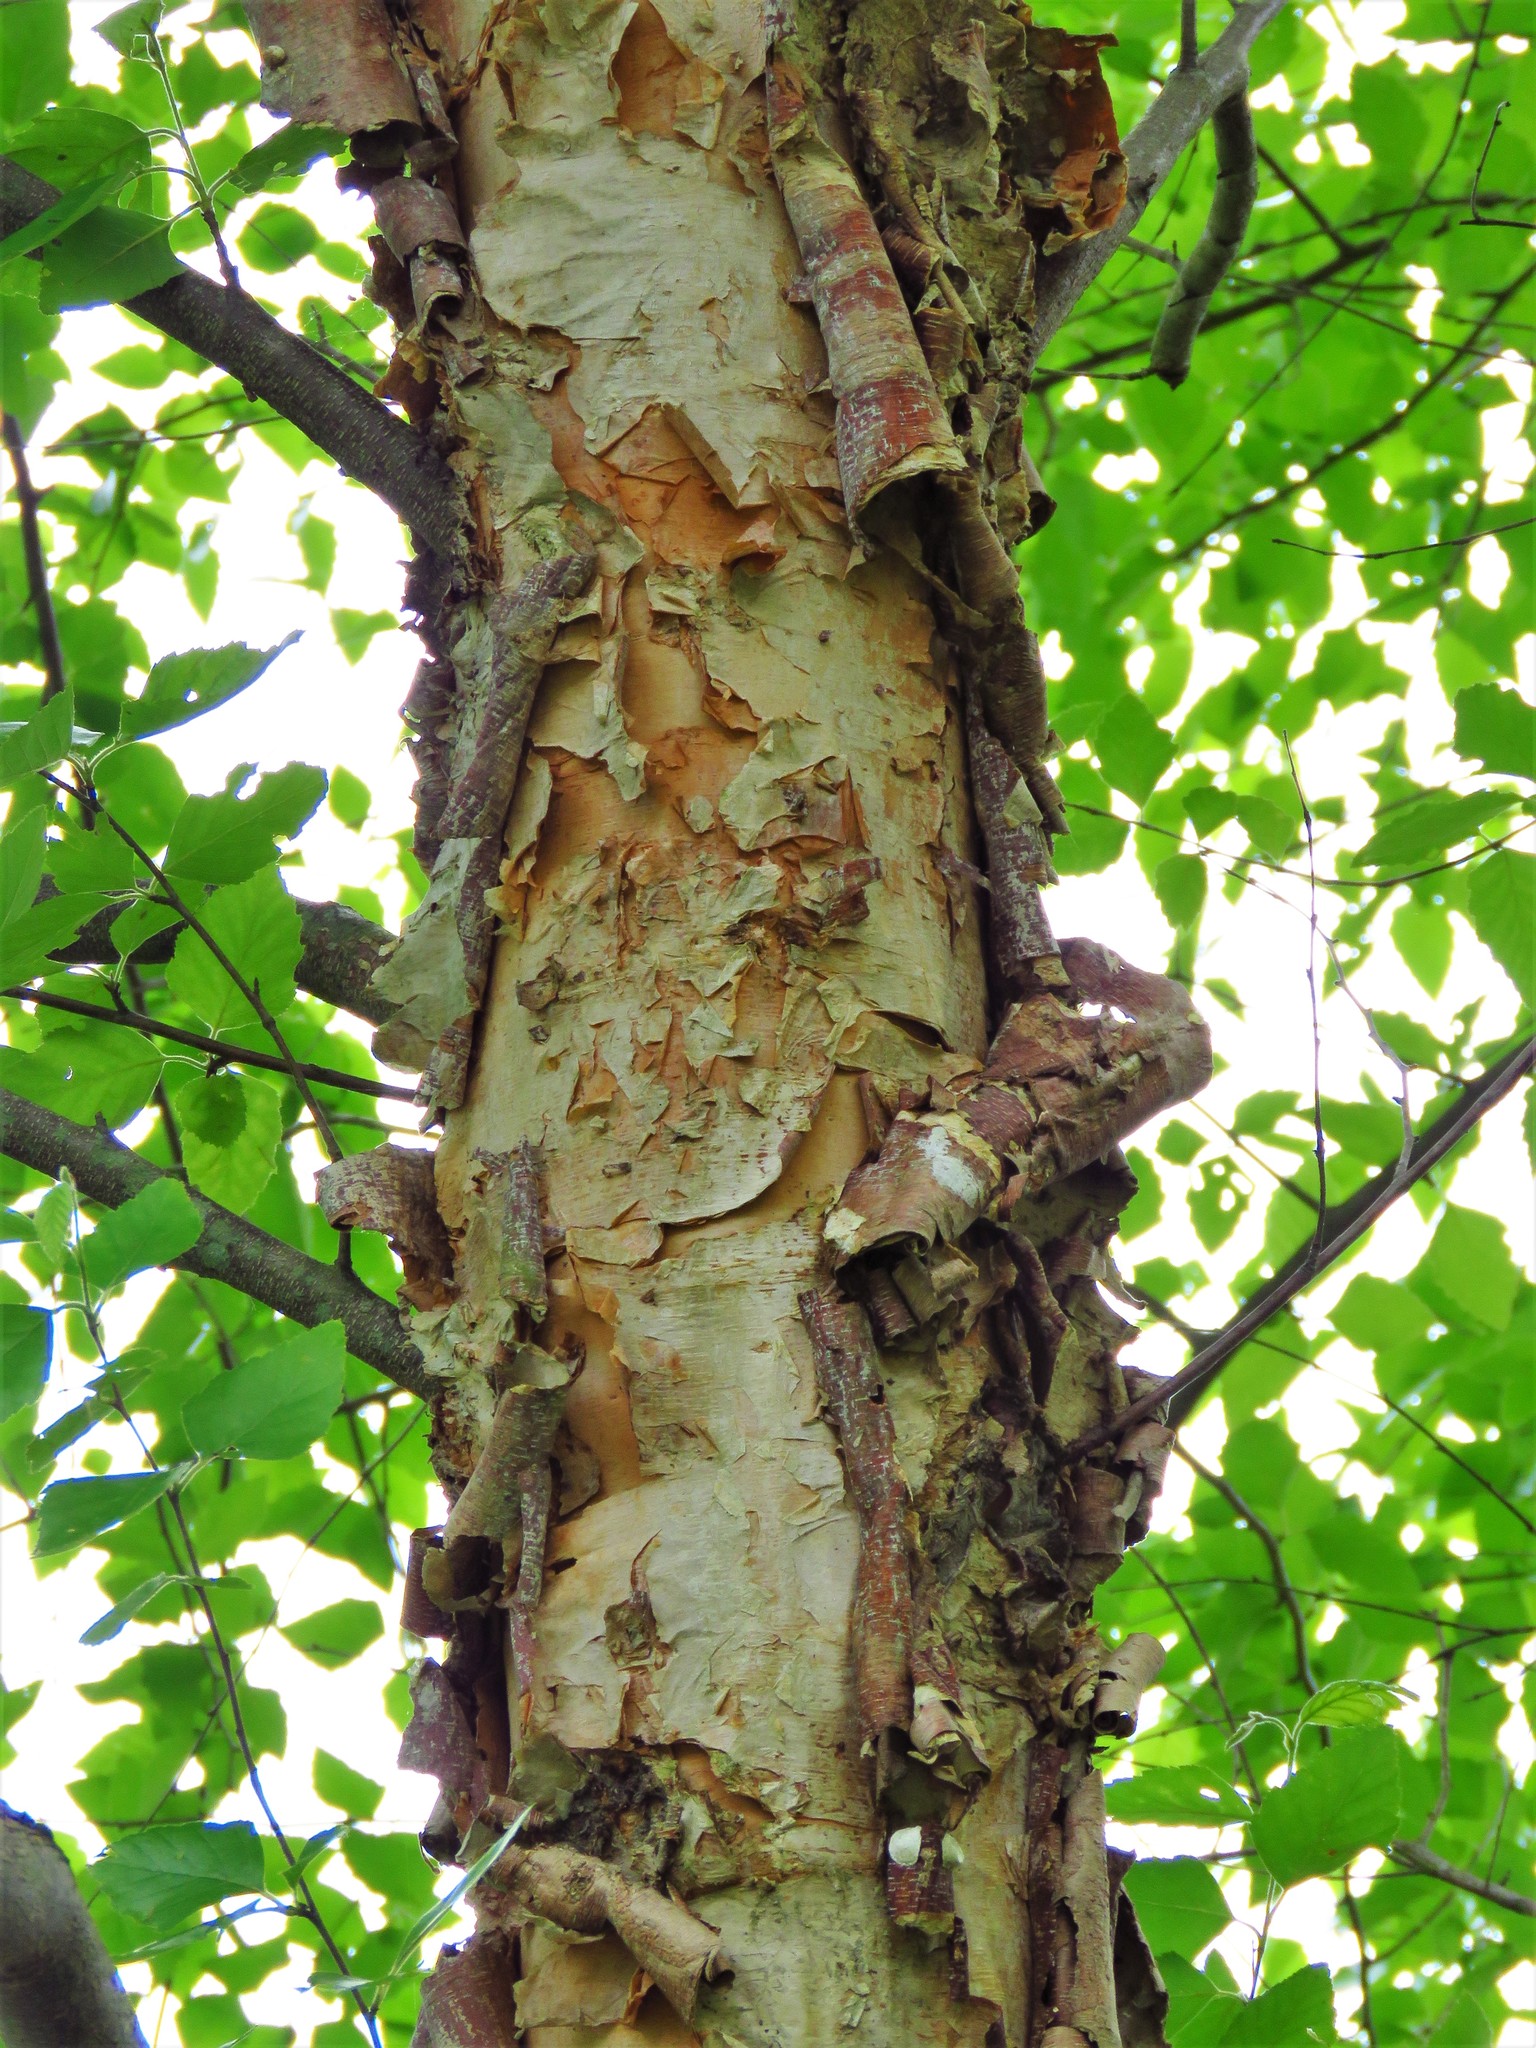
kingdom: Plantae
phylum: Tracheophyta
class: Magnoliopsida
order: Fagales
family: Betulaceae
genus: Betula
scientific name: Betula nigra
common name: Black birch
